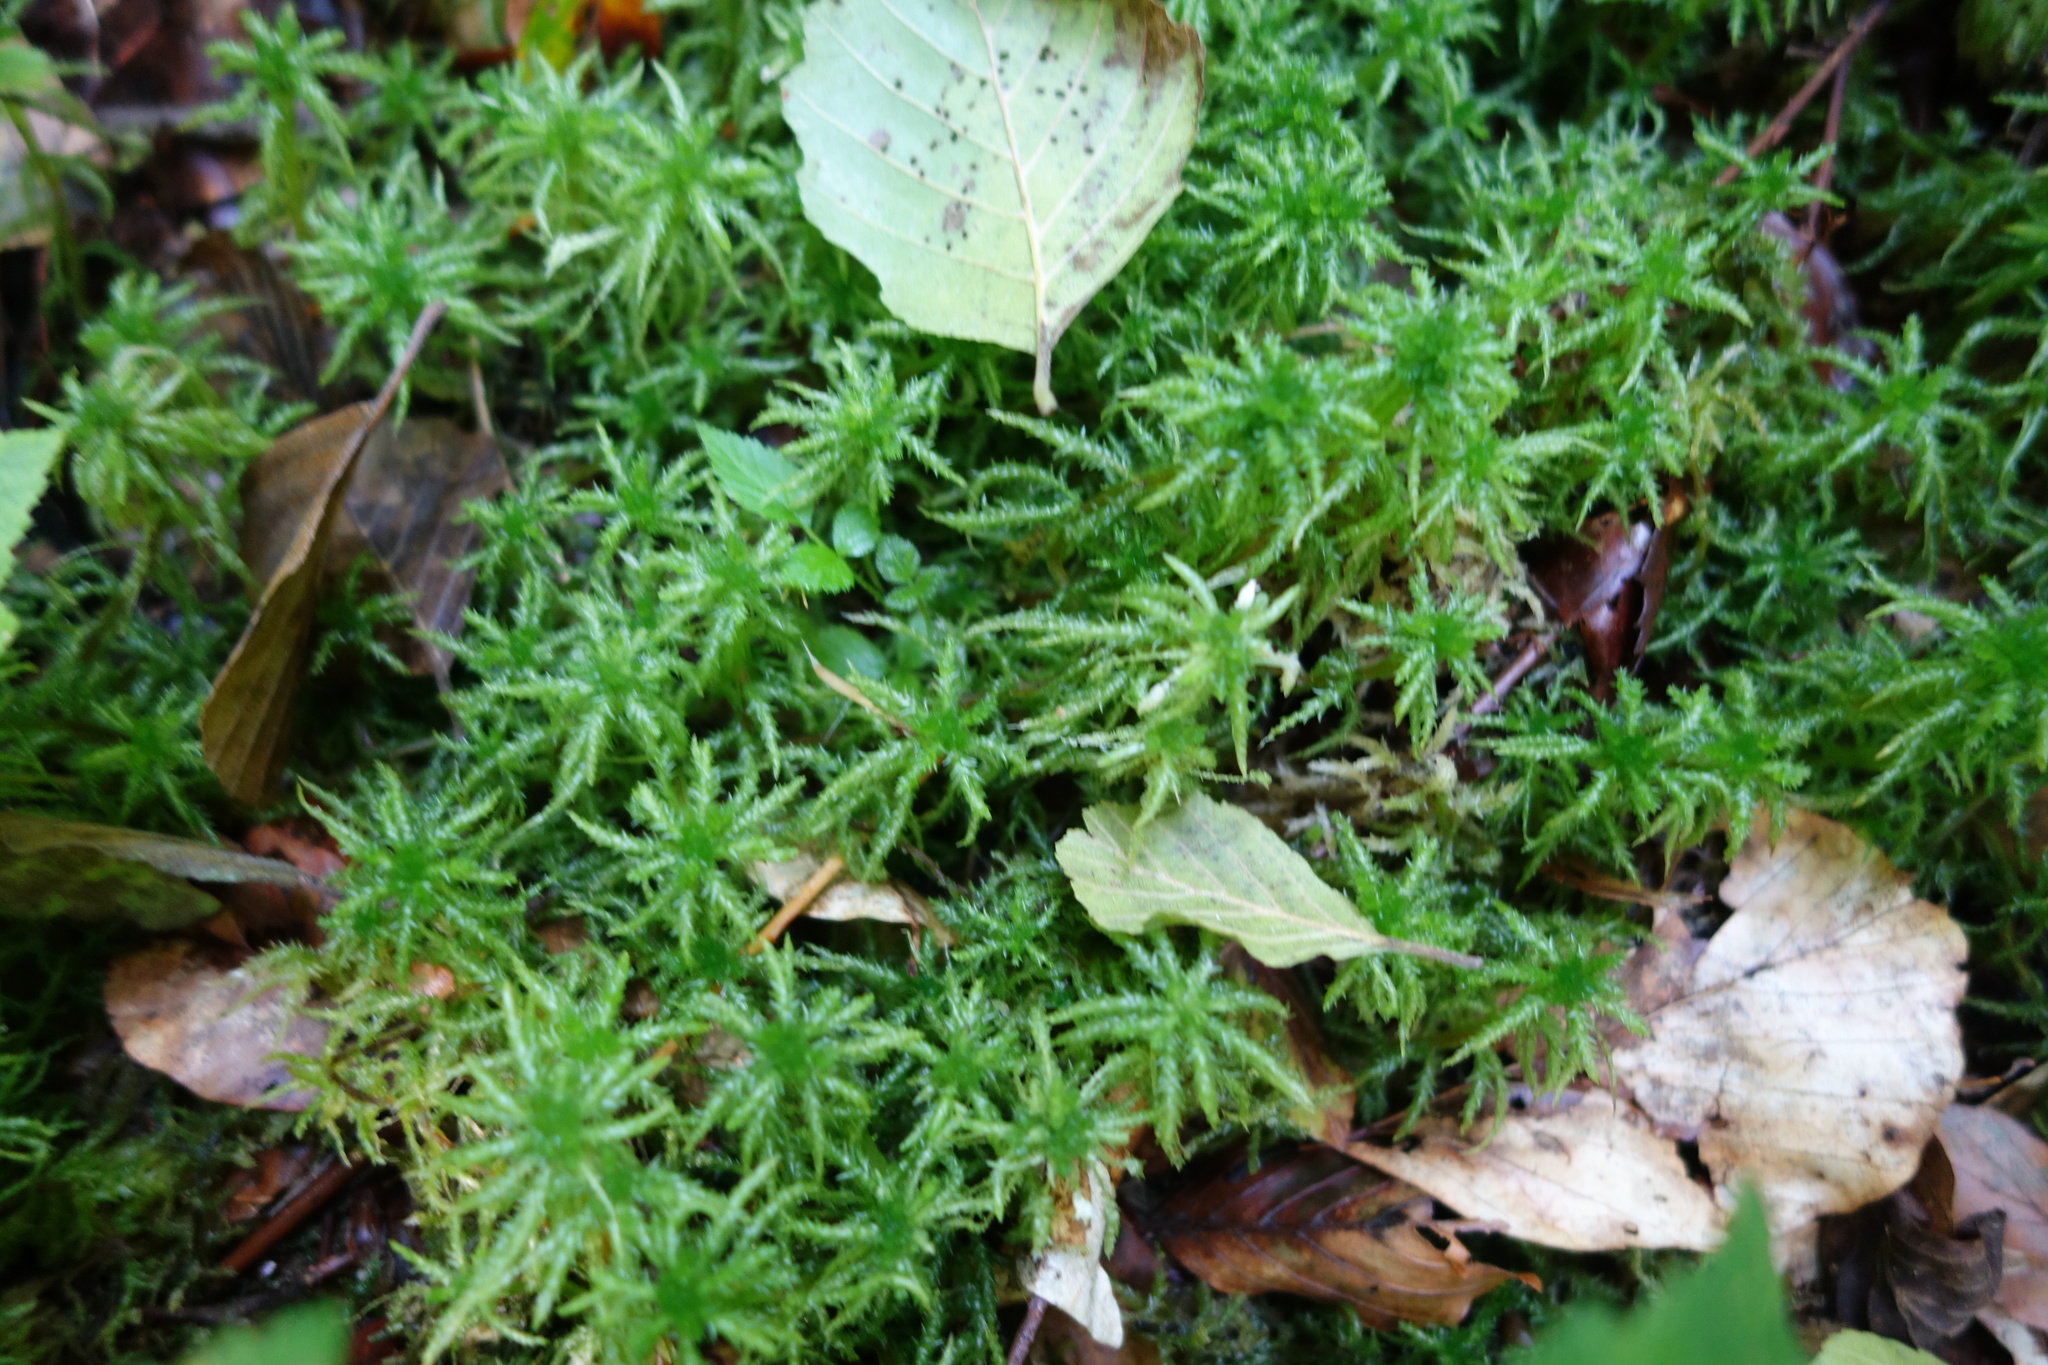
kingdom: Plantae
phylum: Bryophyta
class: Sphagnopsida
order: Sphagnales
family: Sphagnaceae
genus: Sphagnum
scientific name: Sphagnum squarrosum
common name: Shaggy peat moss
